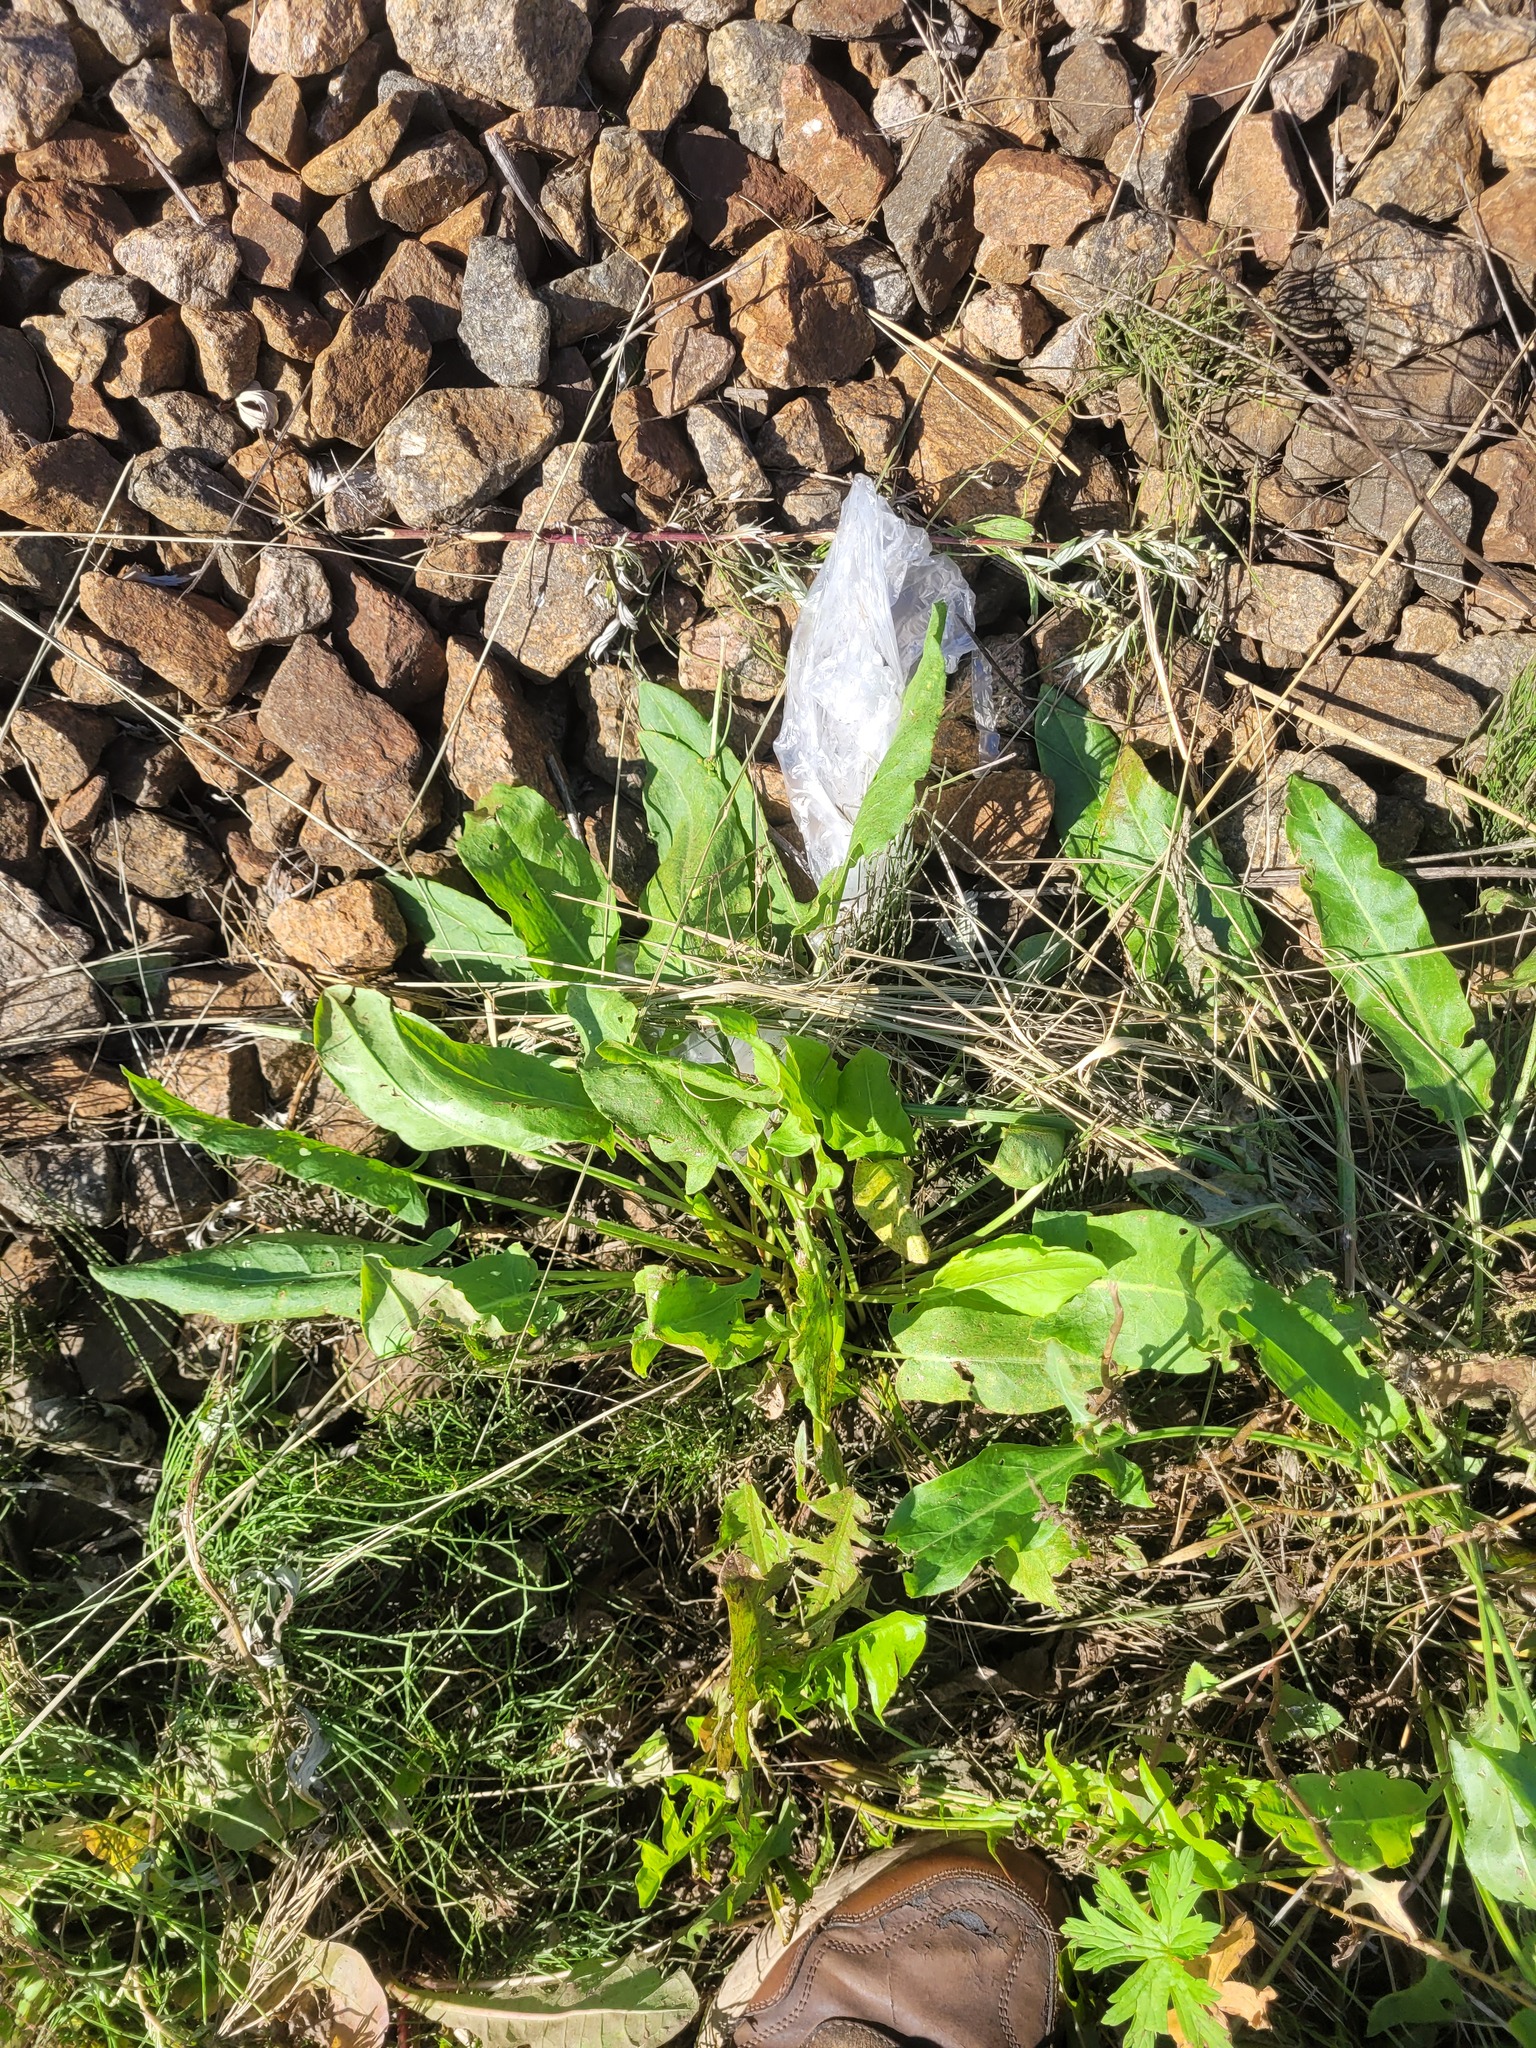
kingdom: Plantae
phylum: Tracheophyta
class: Magnoliopsida
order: Caryophyllales
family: Polygonaceae
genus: Rumex
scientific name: Rumex thyrsiflorus
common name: Garden sorrel
